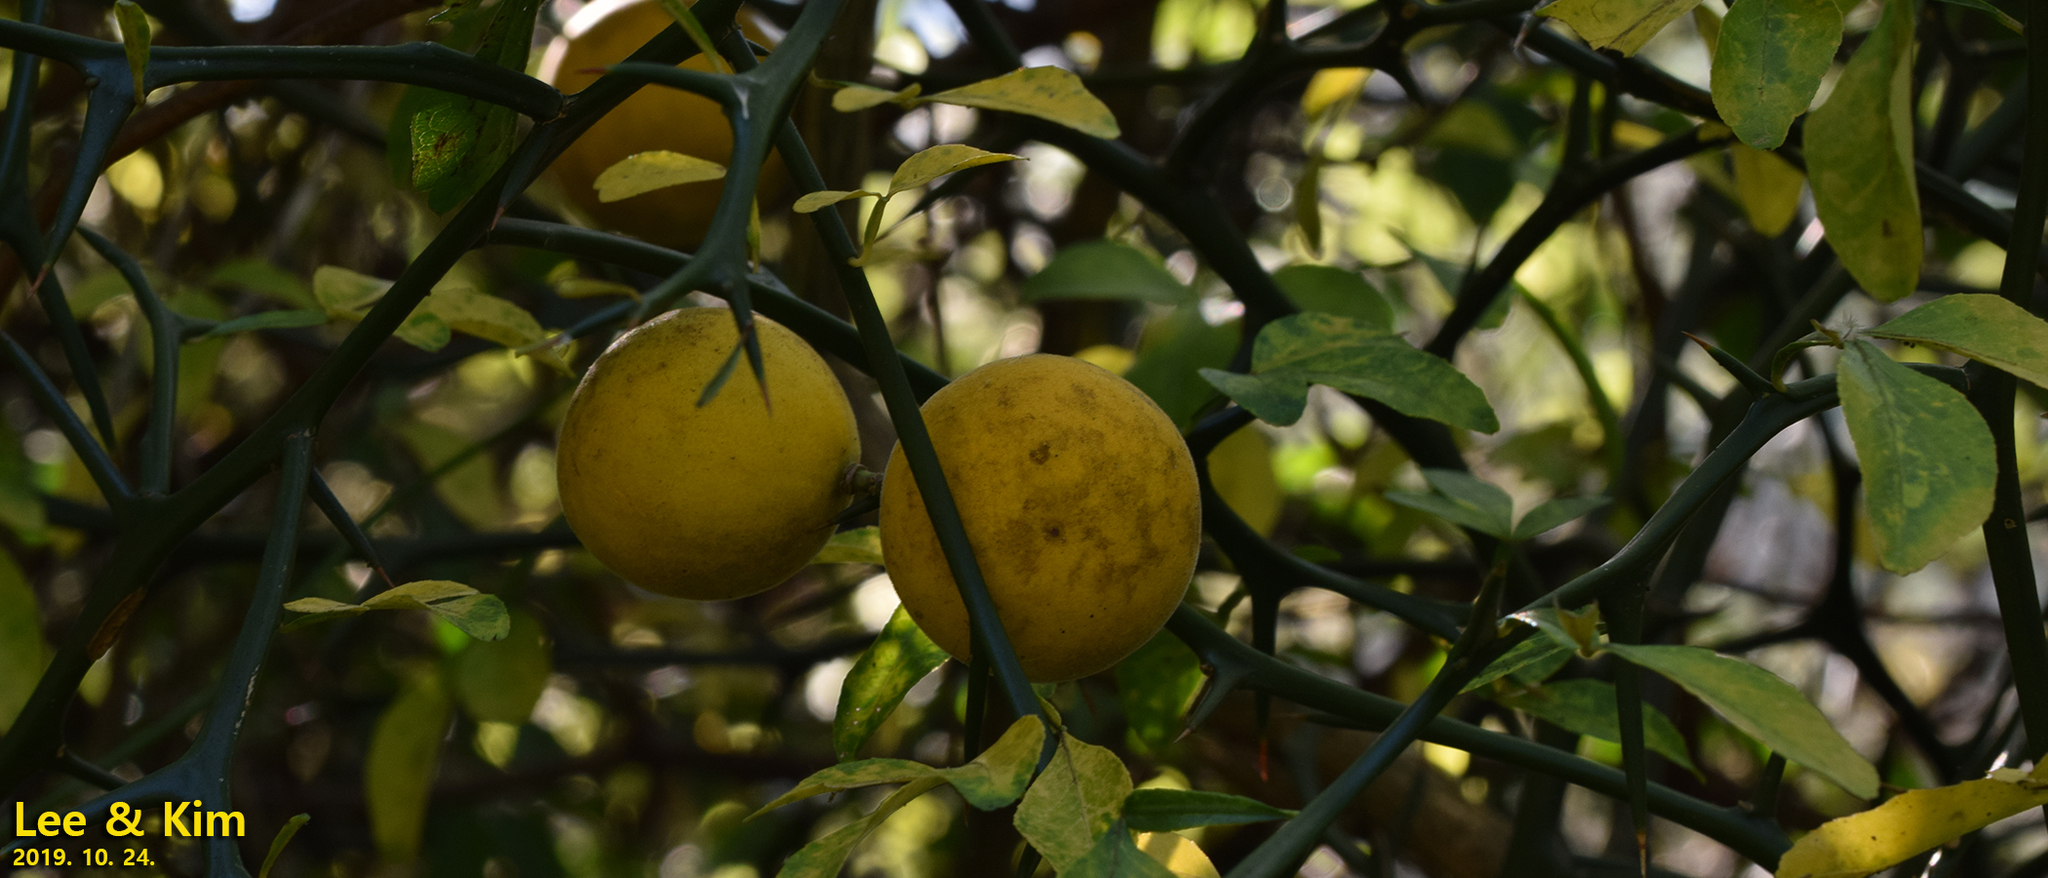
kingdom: Plantae
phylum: Tracheophyta
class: Magnoliopsida
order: Sapindales
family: Rutaceae
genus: Citrus
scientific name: Citrus trifoliata
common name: Japanese bitter-orange
